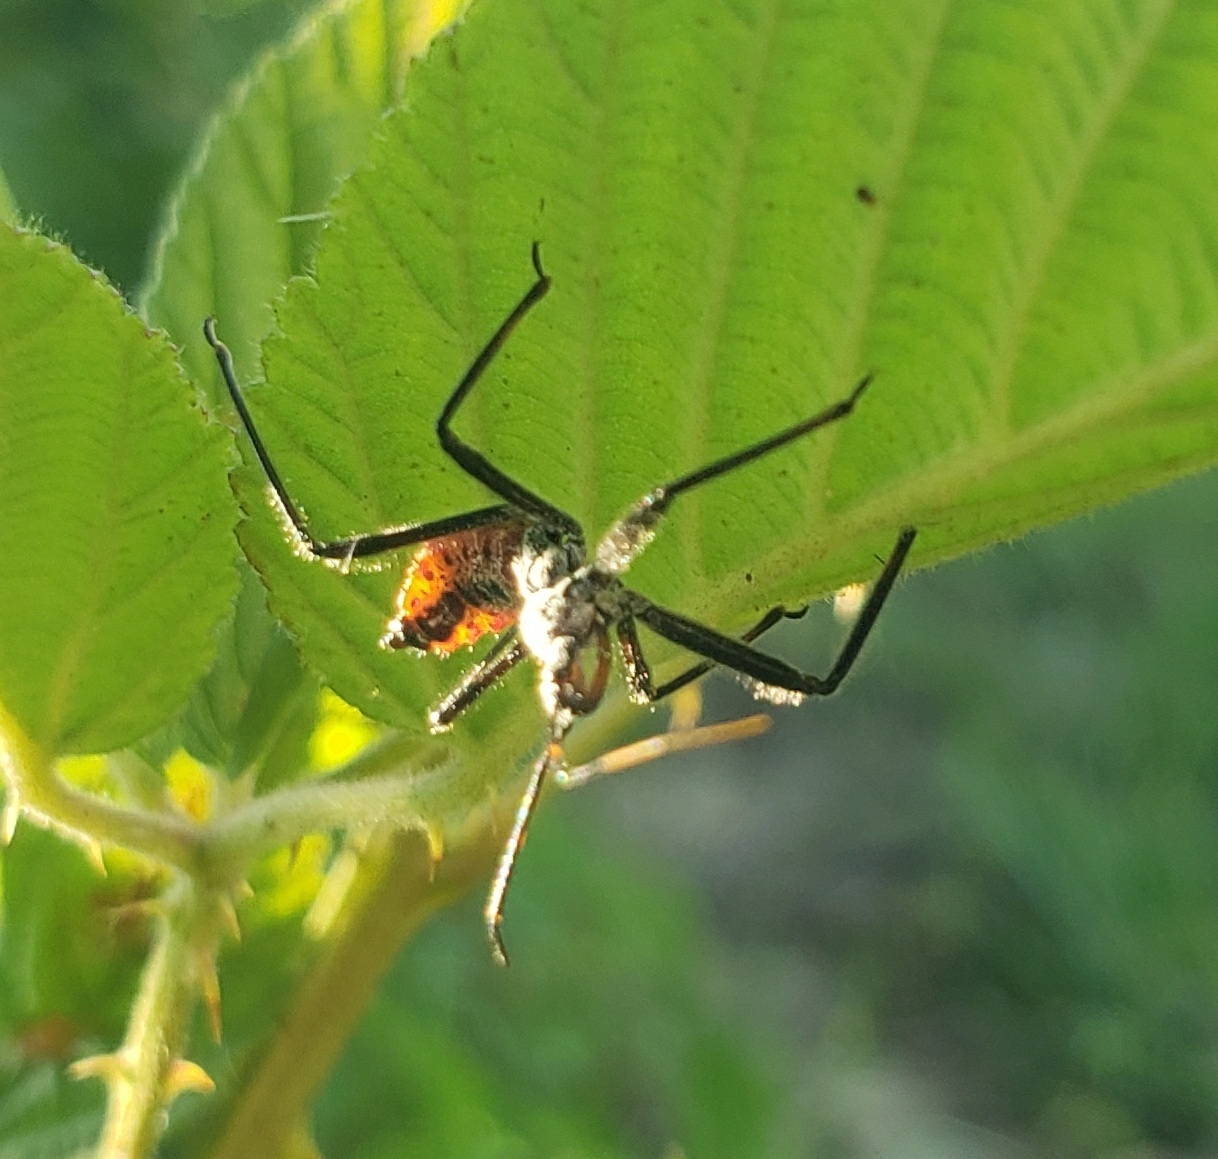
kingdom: Animalia
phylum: Arthropoda
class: Insecta
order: Hemiptera
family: Reduviidae
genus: Arilus
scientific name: Arilus cristatus
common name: North american wheel bug
